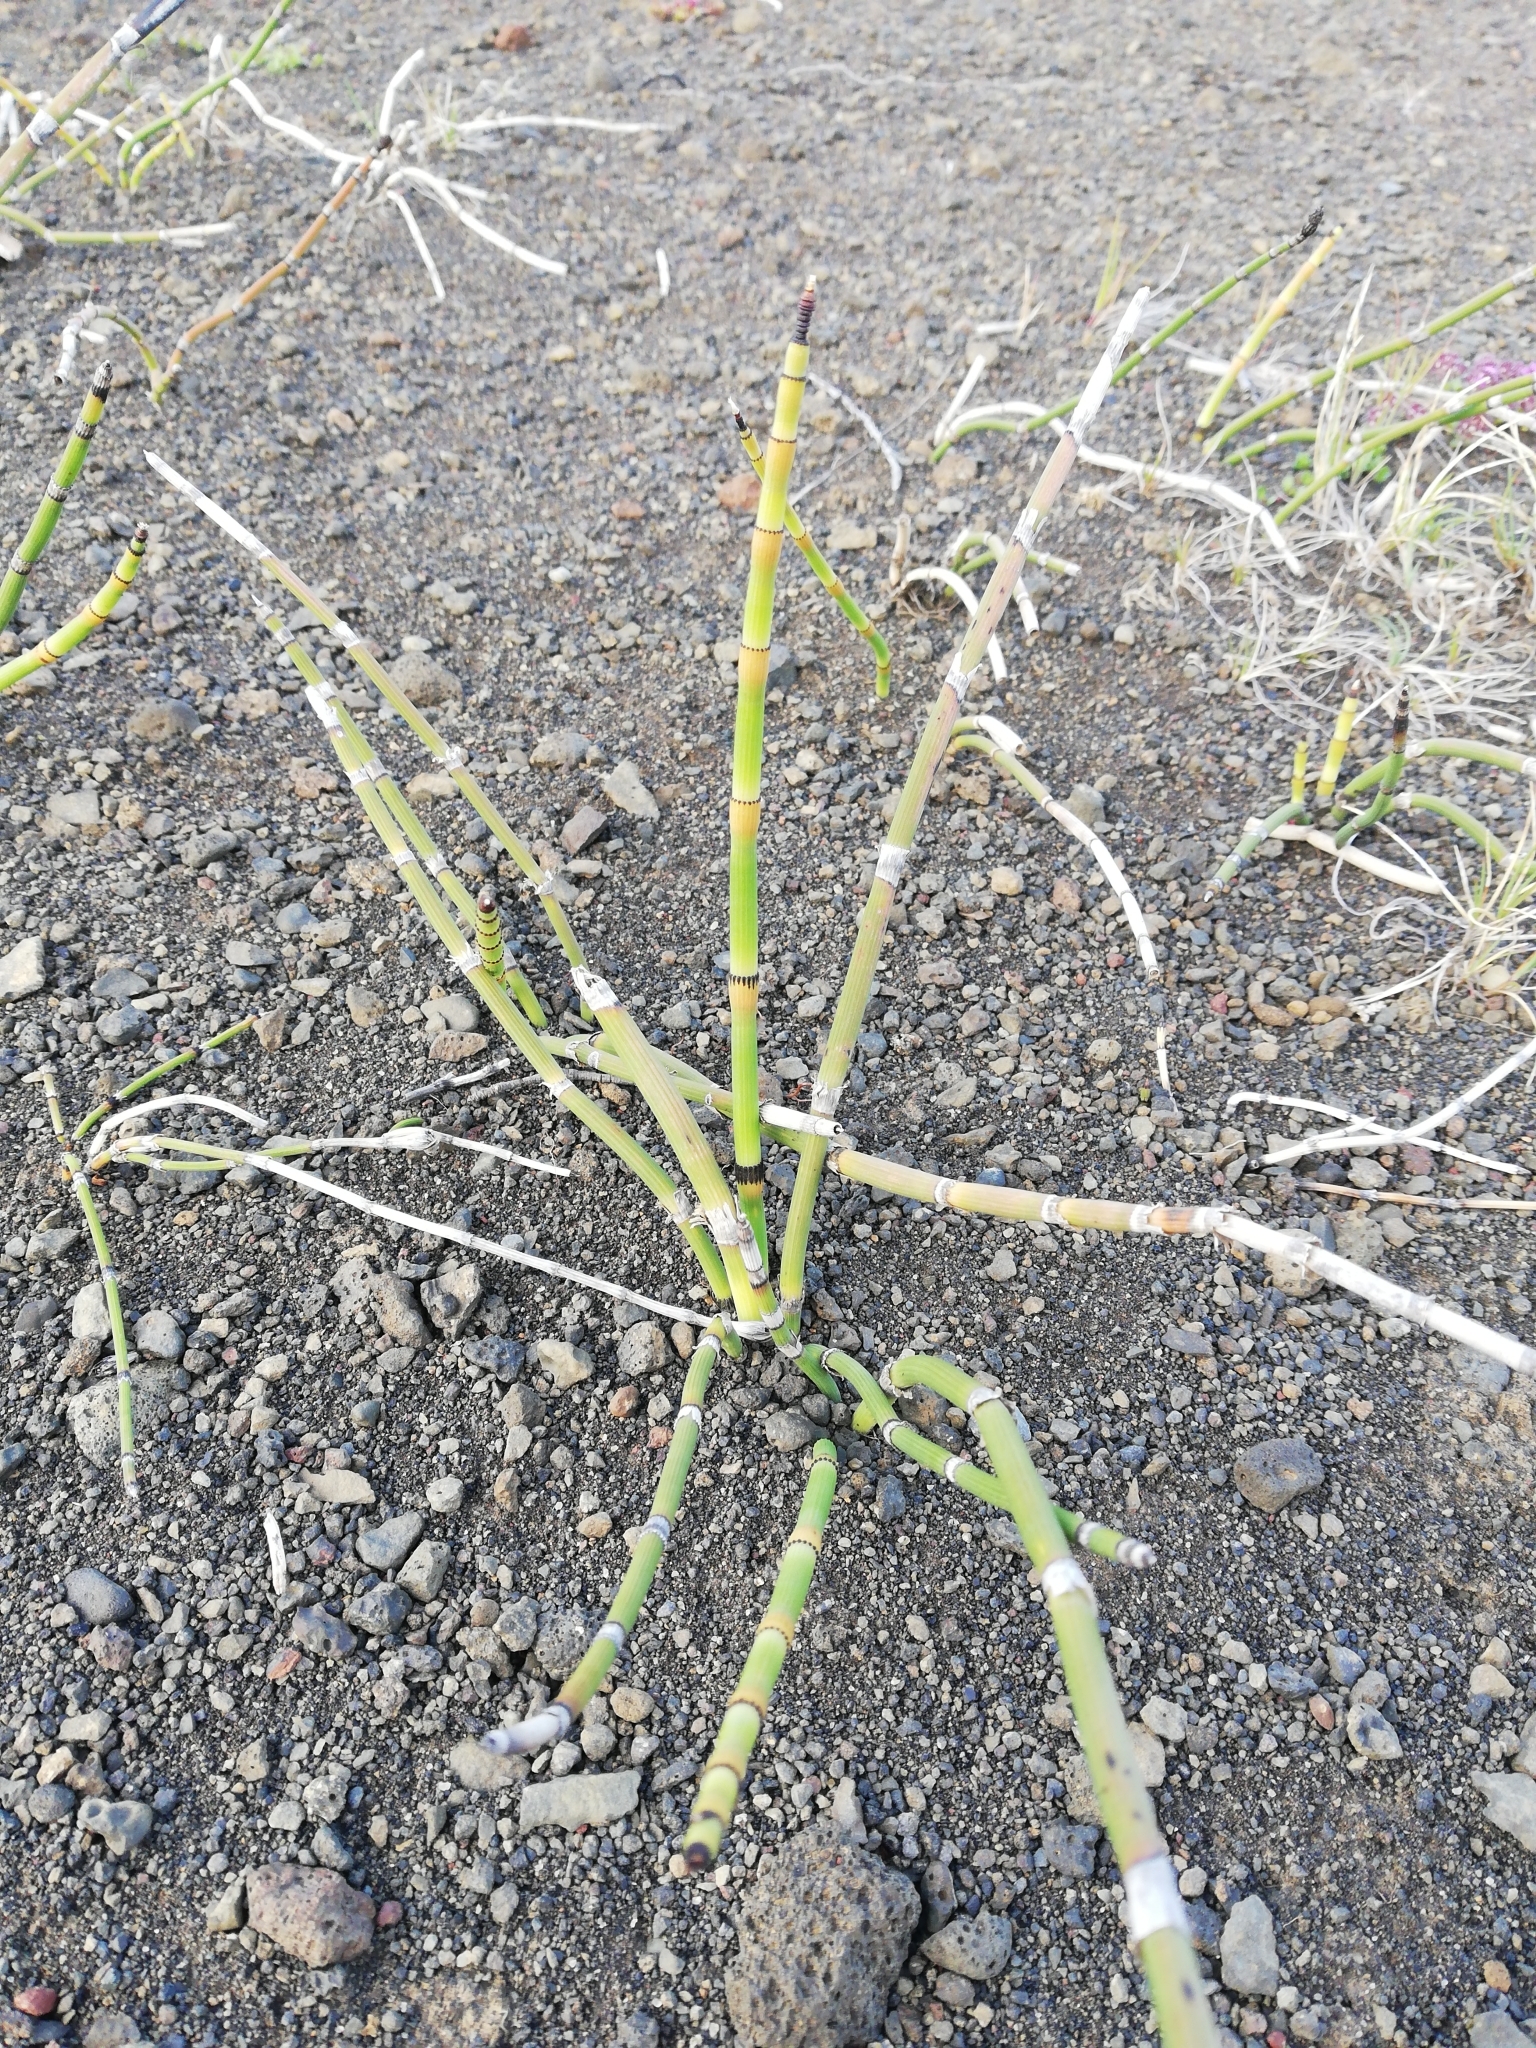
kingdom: Plantae
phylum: Tracheophyta
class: Polypodiopsida
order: Equisetales
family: Equisetaceae
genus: Equisetum
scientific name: Equisetum hyemale
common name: Rough horsetail
